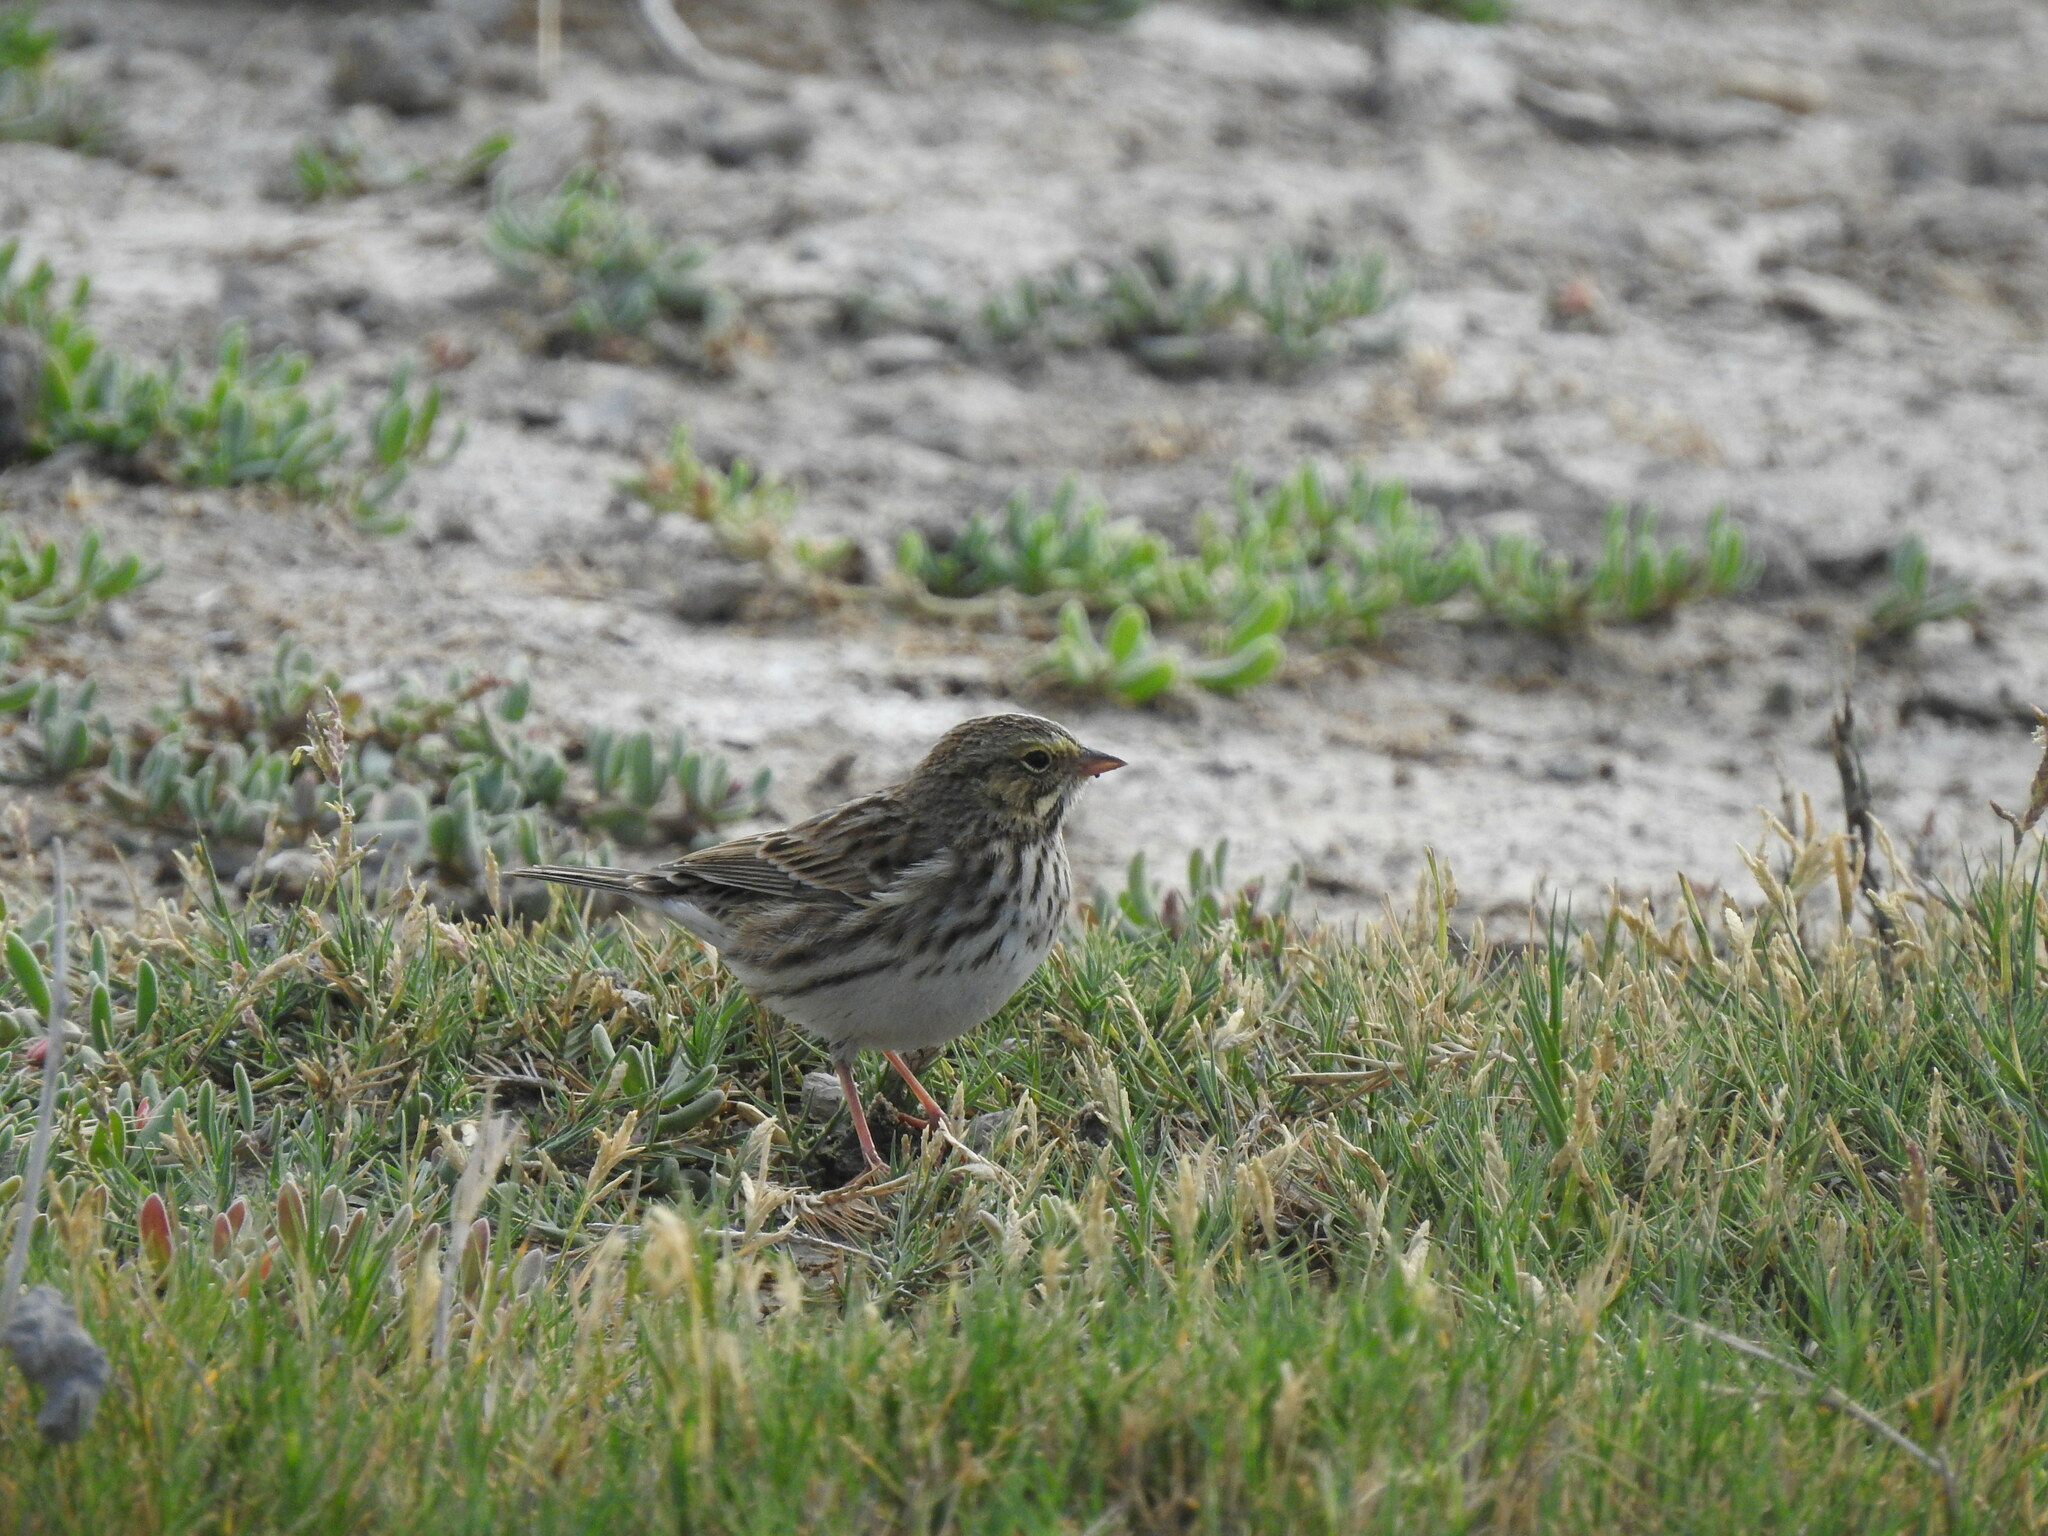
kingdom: Animalia
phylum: Chordata
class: Aves
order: Passeriformes
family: Passerellidae
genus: Passerculus
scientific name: Passerculus sandwichensis
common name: Savannah sparrow
